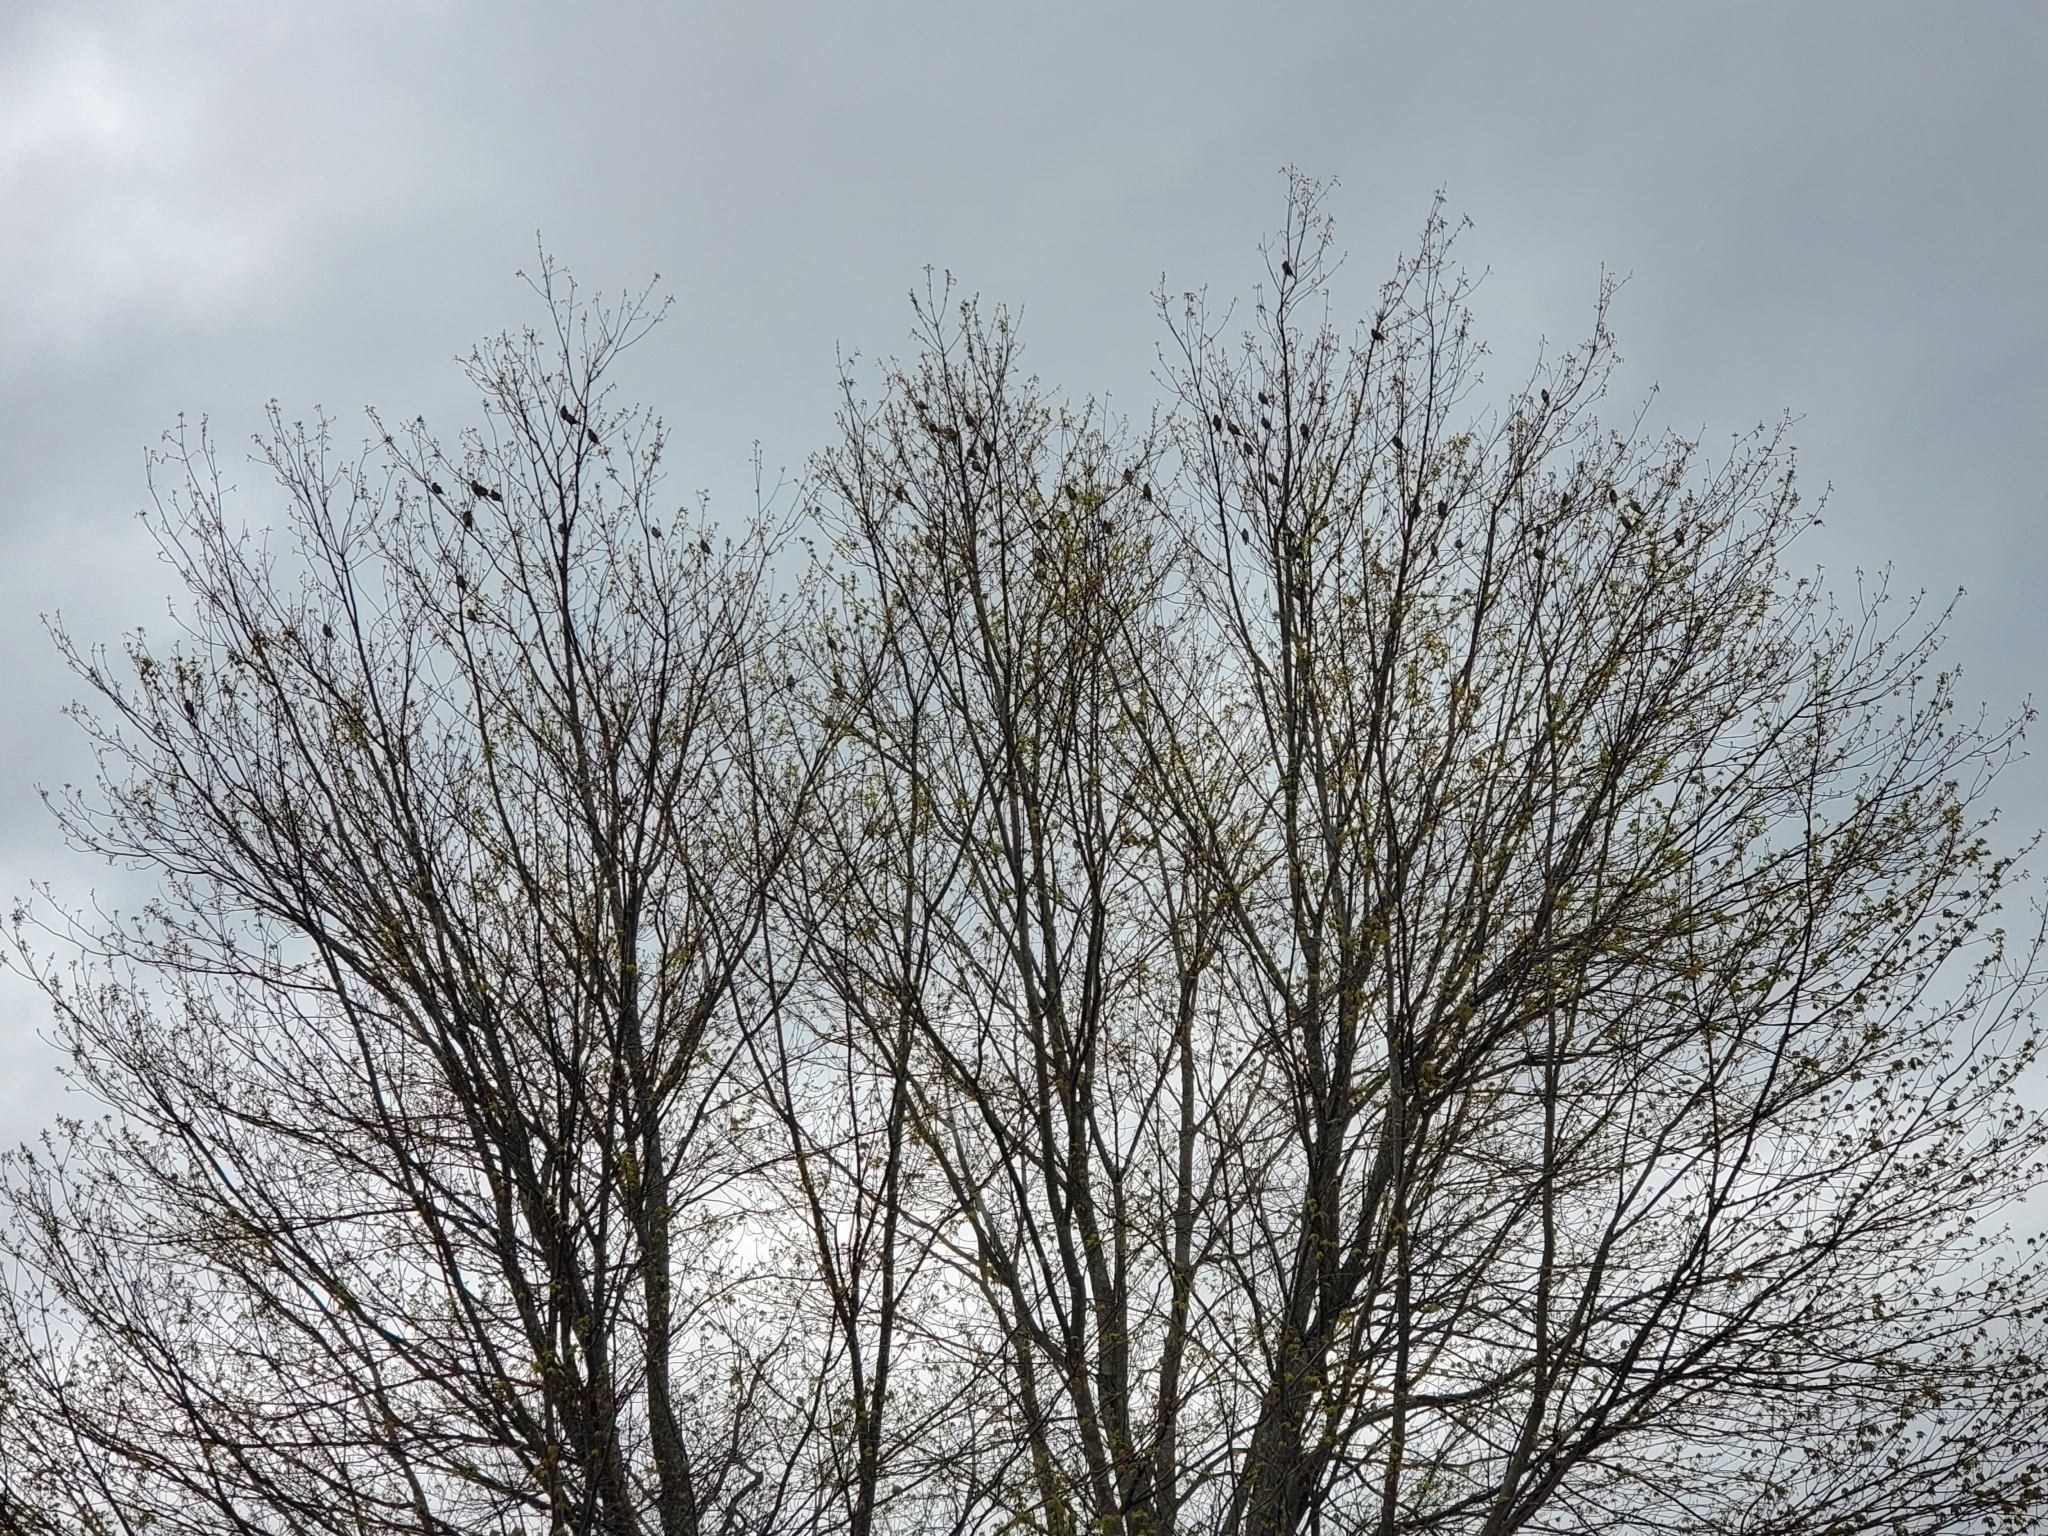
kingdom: Animalia
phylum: Chordata
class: Aves
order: Passeriformes
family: Bombycillidae
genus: Bombycilla
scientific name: Bombycilla cedrorum
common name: Cedar waxwing
